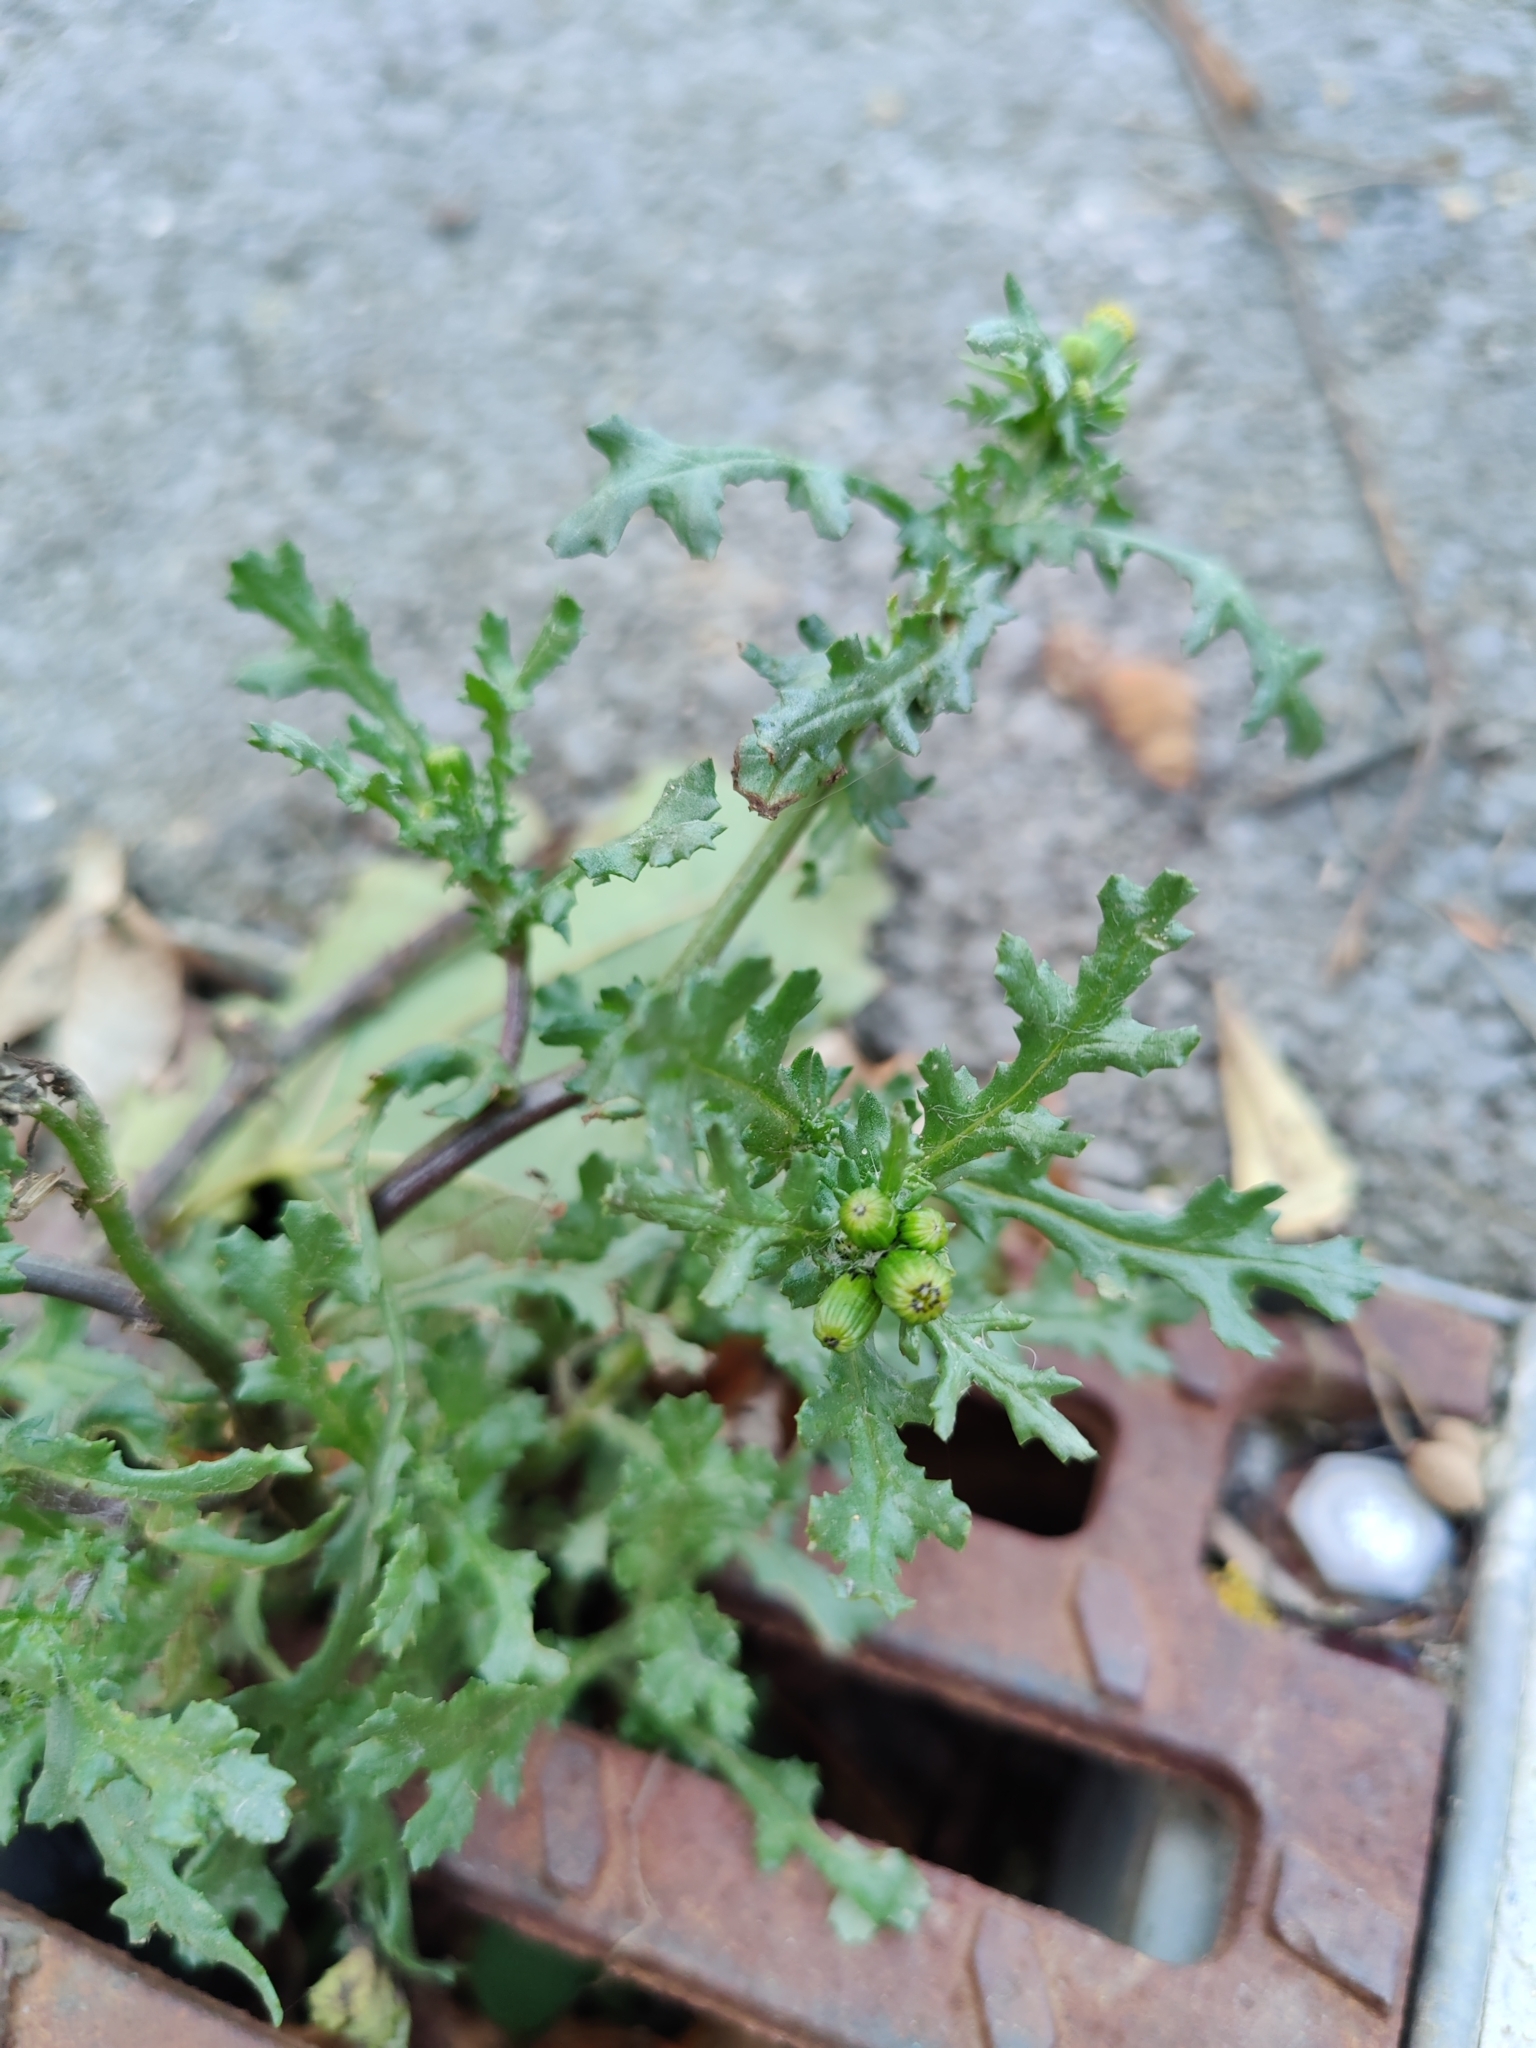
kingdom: Plantae
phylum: Tracheophyta
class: Magnoliopsida
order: Asterales
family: Asteraceae
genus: Senecio
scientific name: Senecio vulgaris
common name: Old-man-in-the-spring
